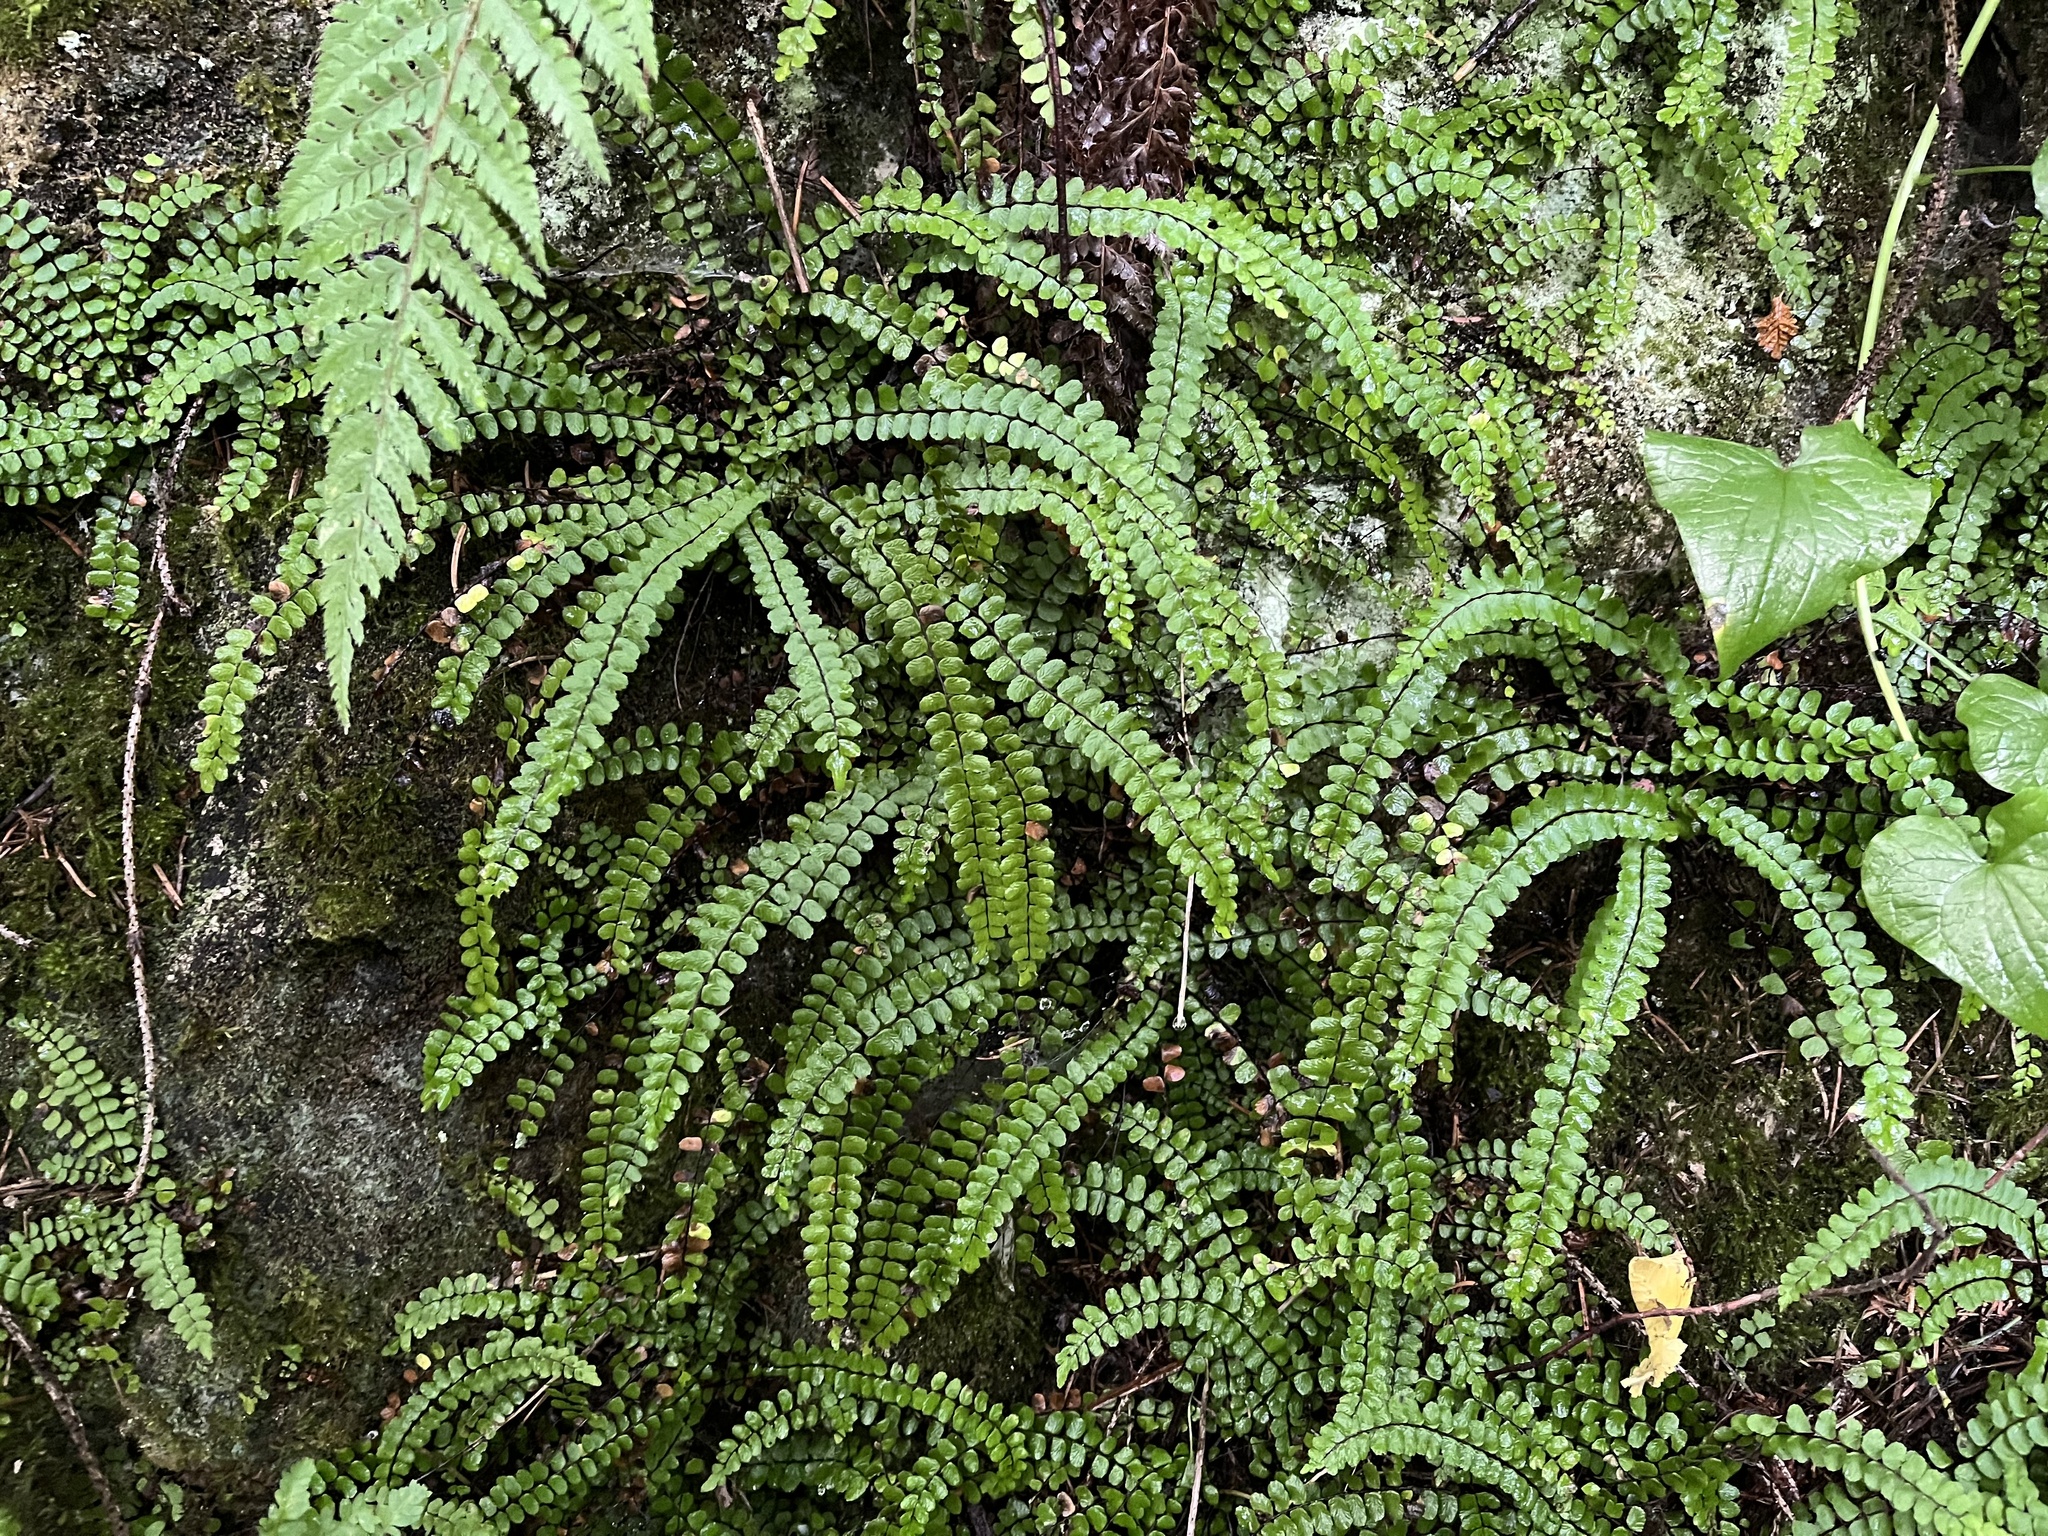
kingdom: Plantae
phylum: Tracheophyta
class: Polypodiopsida
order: Polypodiales
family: Aspleniaceae
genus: Asplenium
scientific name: Asplenium trichomanes
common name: Maidenhair spleenwort
